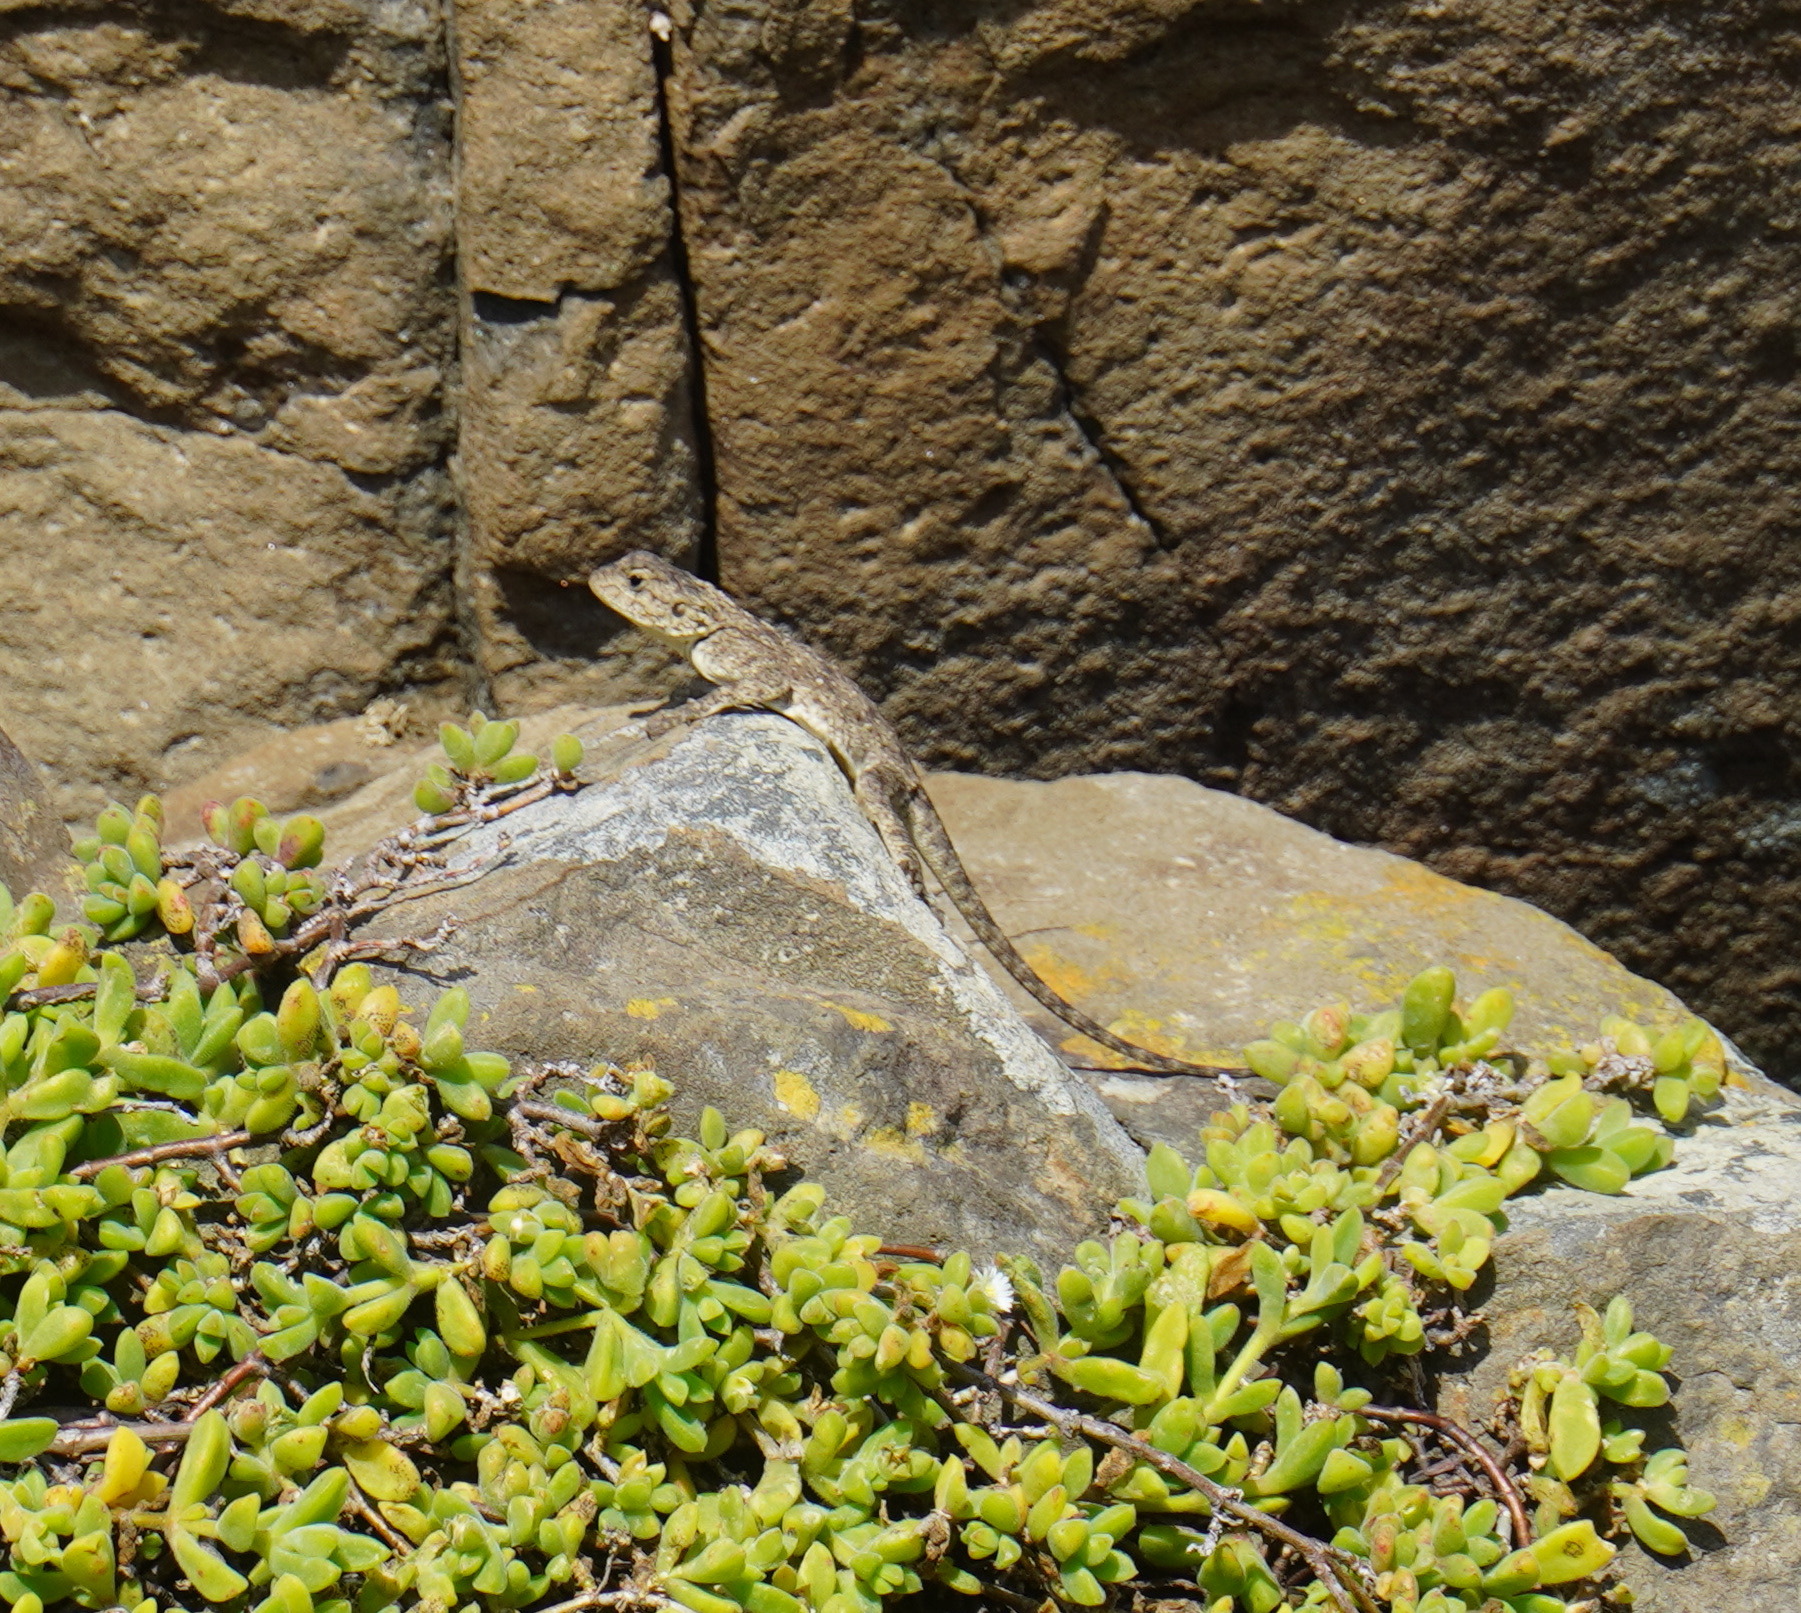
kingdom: Animalia
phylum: Chordata
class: Squamata
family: Agamidae
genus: Agama
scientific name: Agama atra
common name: Southern african rock agama
